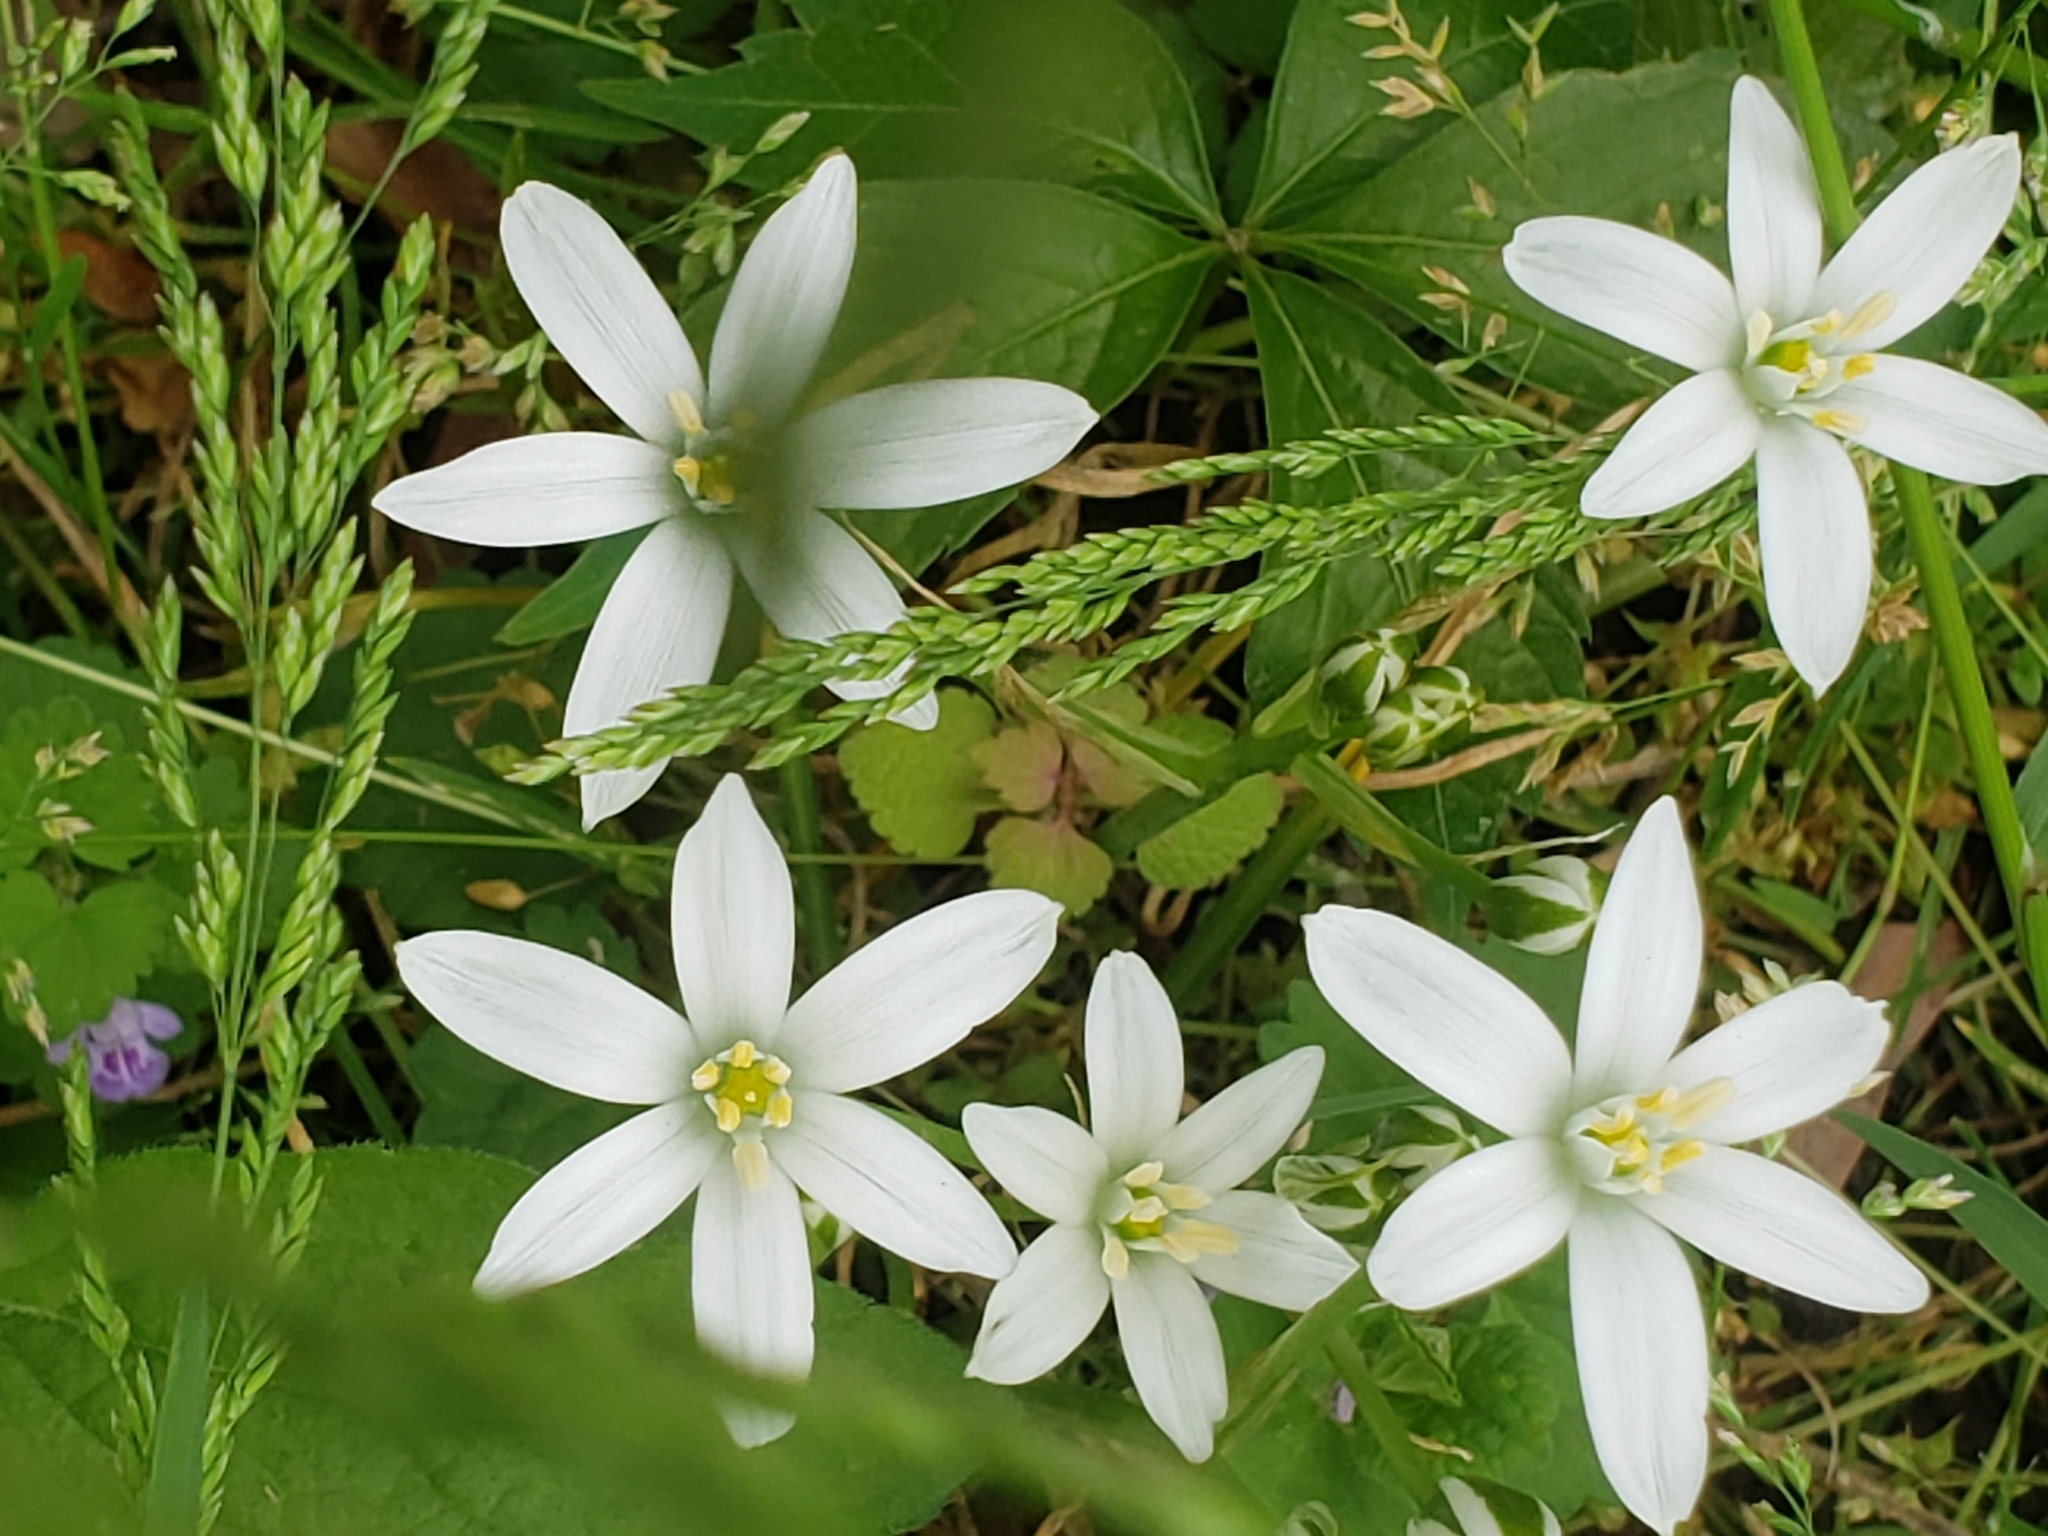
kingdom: Plantae
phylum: Tracheophyta
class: Liliopsida
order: Asparagales
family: Asparagaceae
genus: Ornithogalum
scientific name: Ornithogalum umbellatum
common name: Garden star-of-bethlehem
